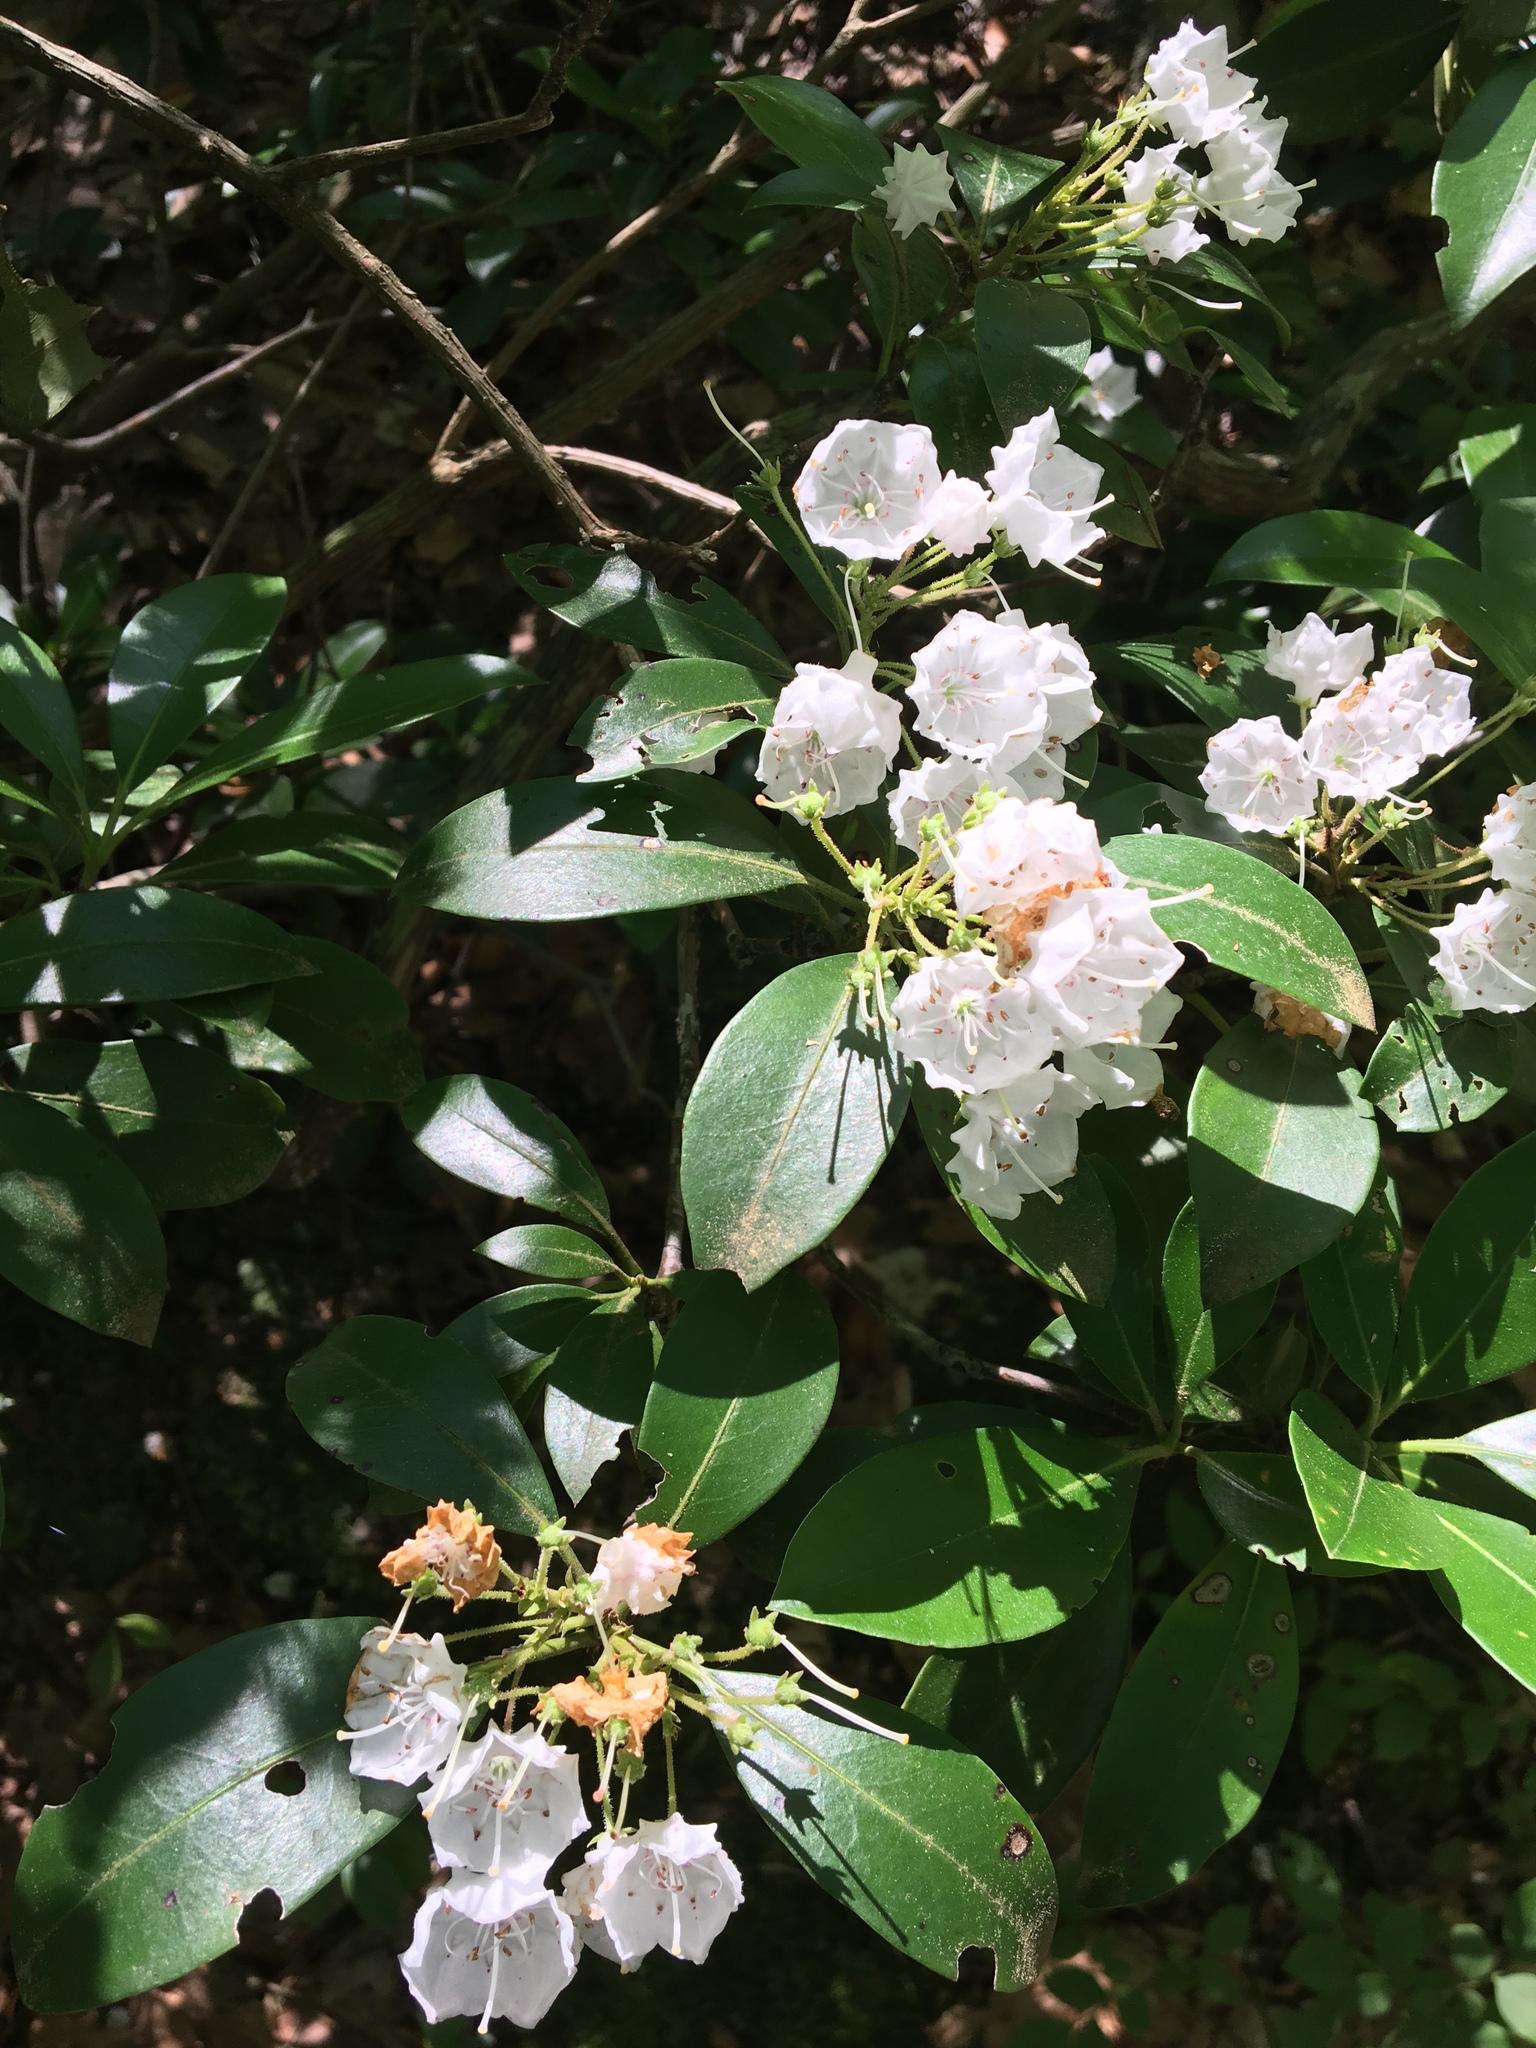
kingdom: Plantae
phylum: Tracheophyta
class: Magnoliopsida
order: Ericales
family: Ericaceae
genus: Kalmia
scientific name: Kalmia latifolia
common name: Mountain-laurel
